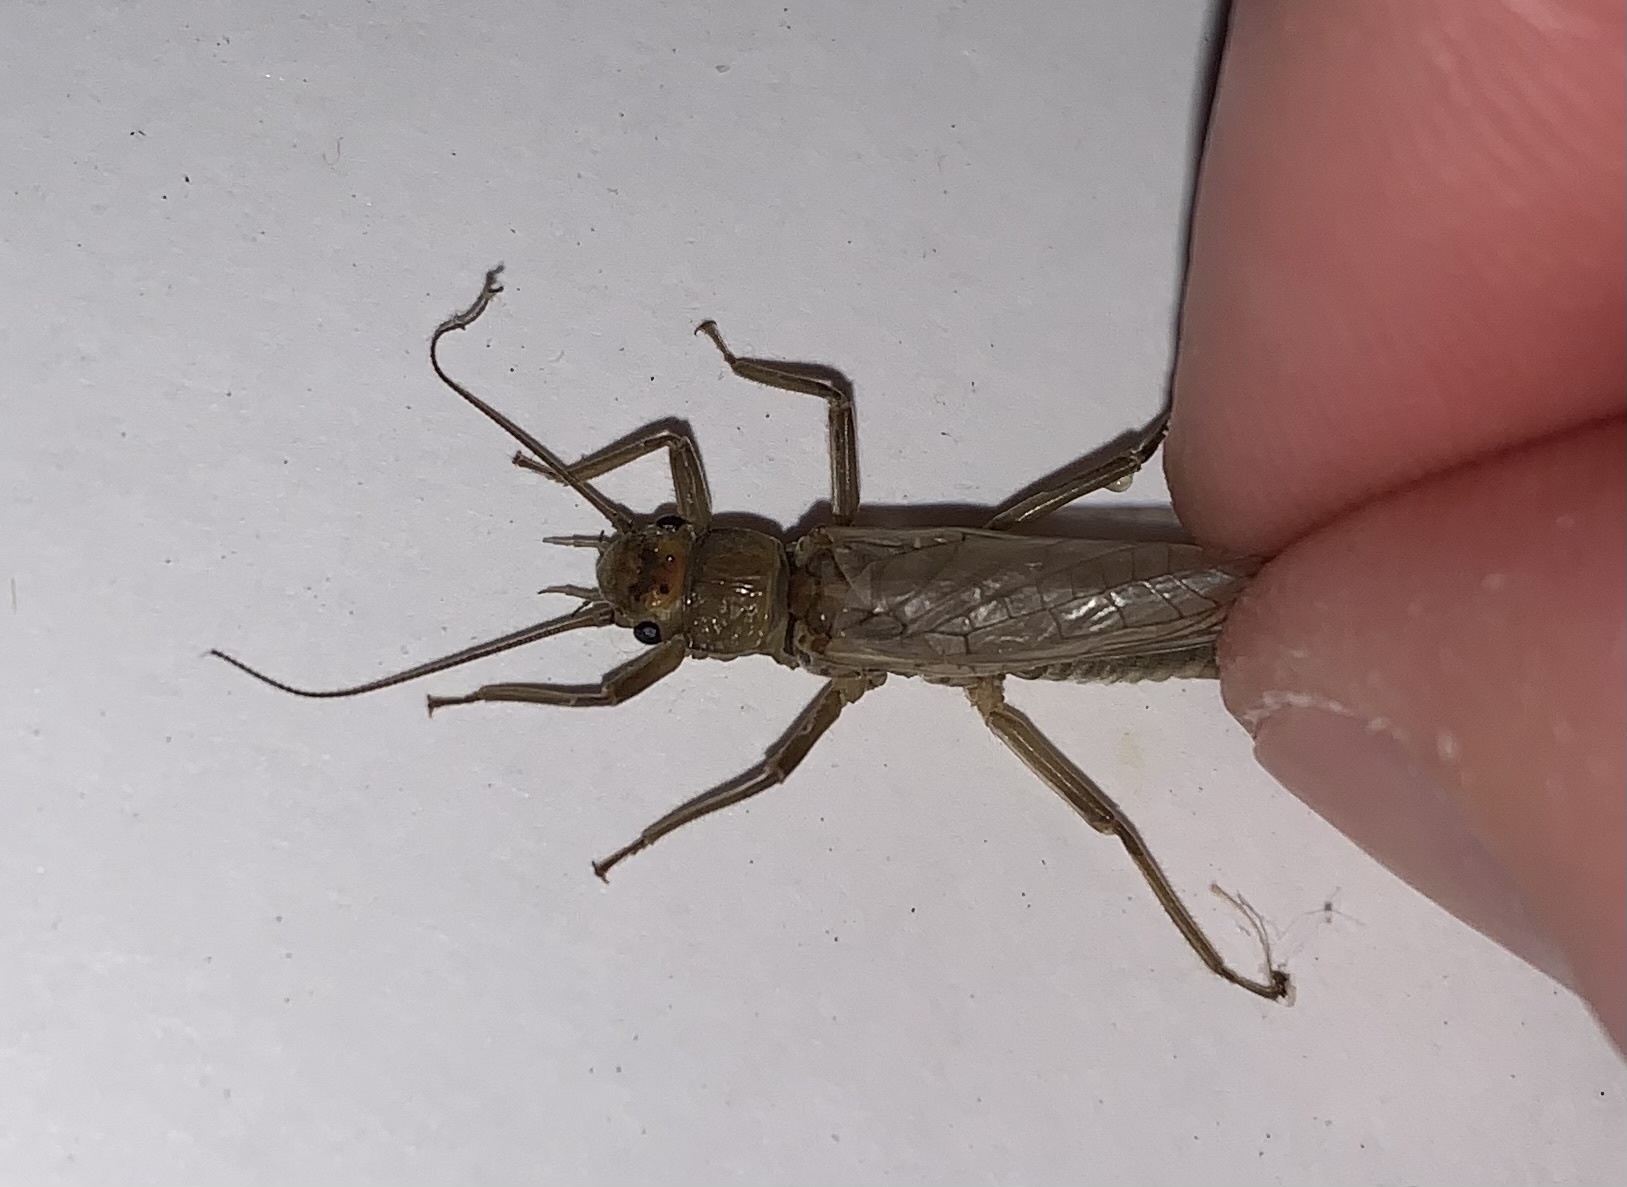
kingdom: Animalia
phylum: Arthropoda
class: Insecta
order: Plecoptera
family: Perlodidae
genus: Isoperla
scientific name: Isoperla bithynica
